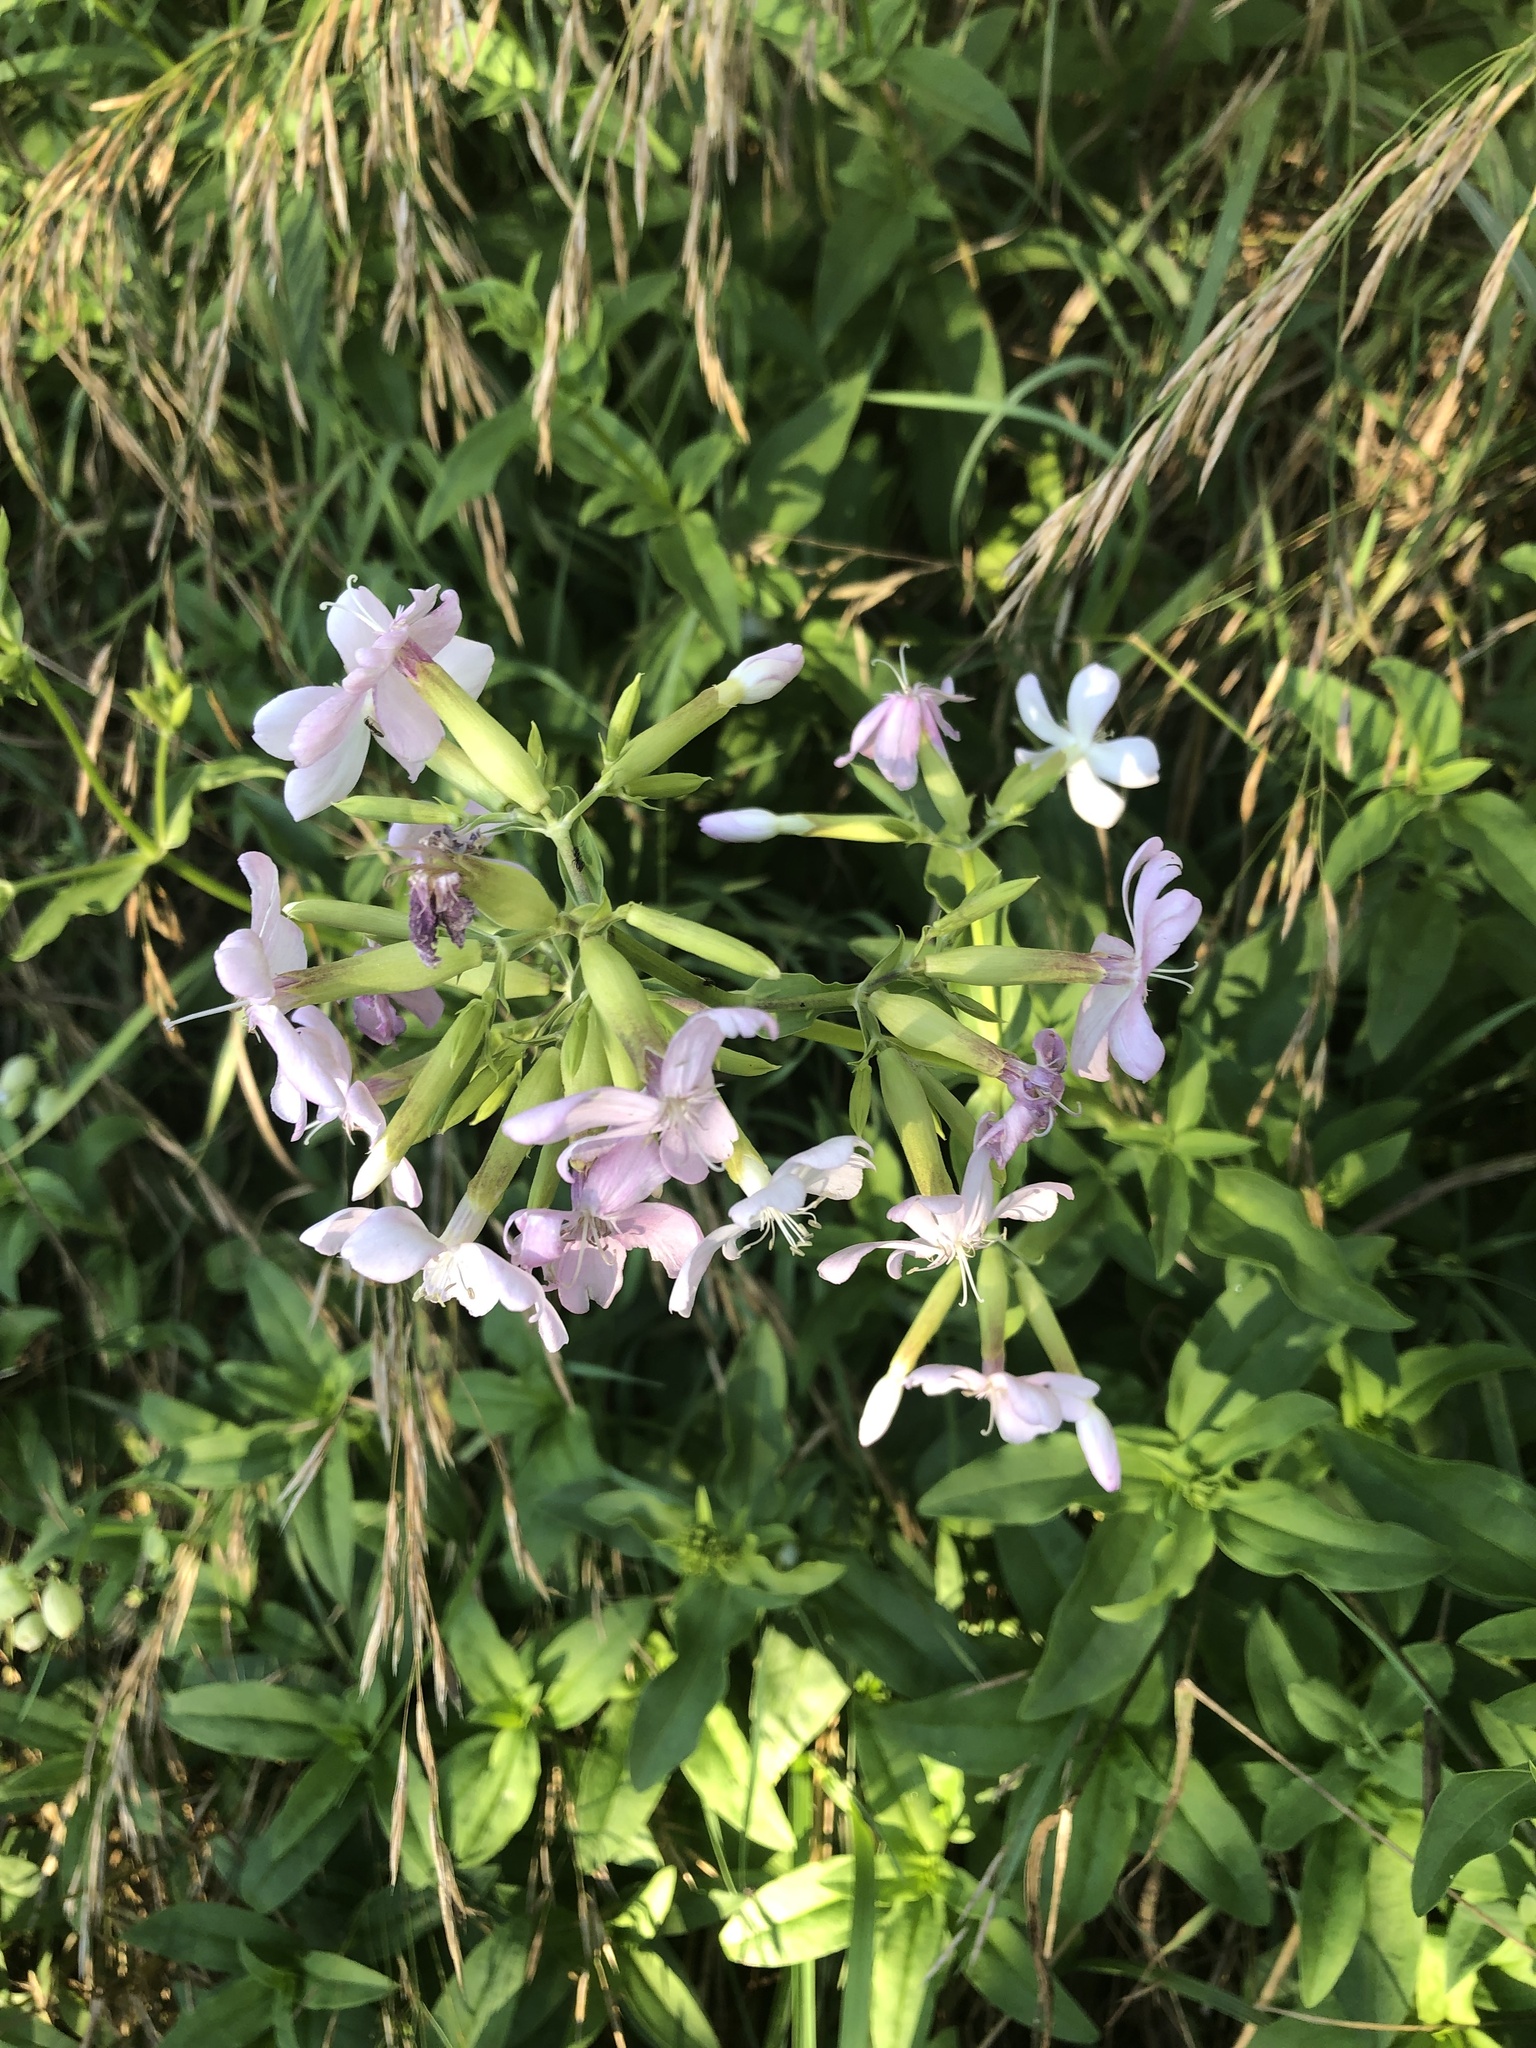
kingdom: Plantae
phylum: Tracheophyta
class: Magnoliopsida
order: Caryophyllales
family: Caryophyllaceae
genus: Saponaria
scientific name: Saponaria officinalis
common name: Soapwort
